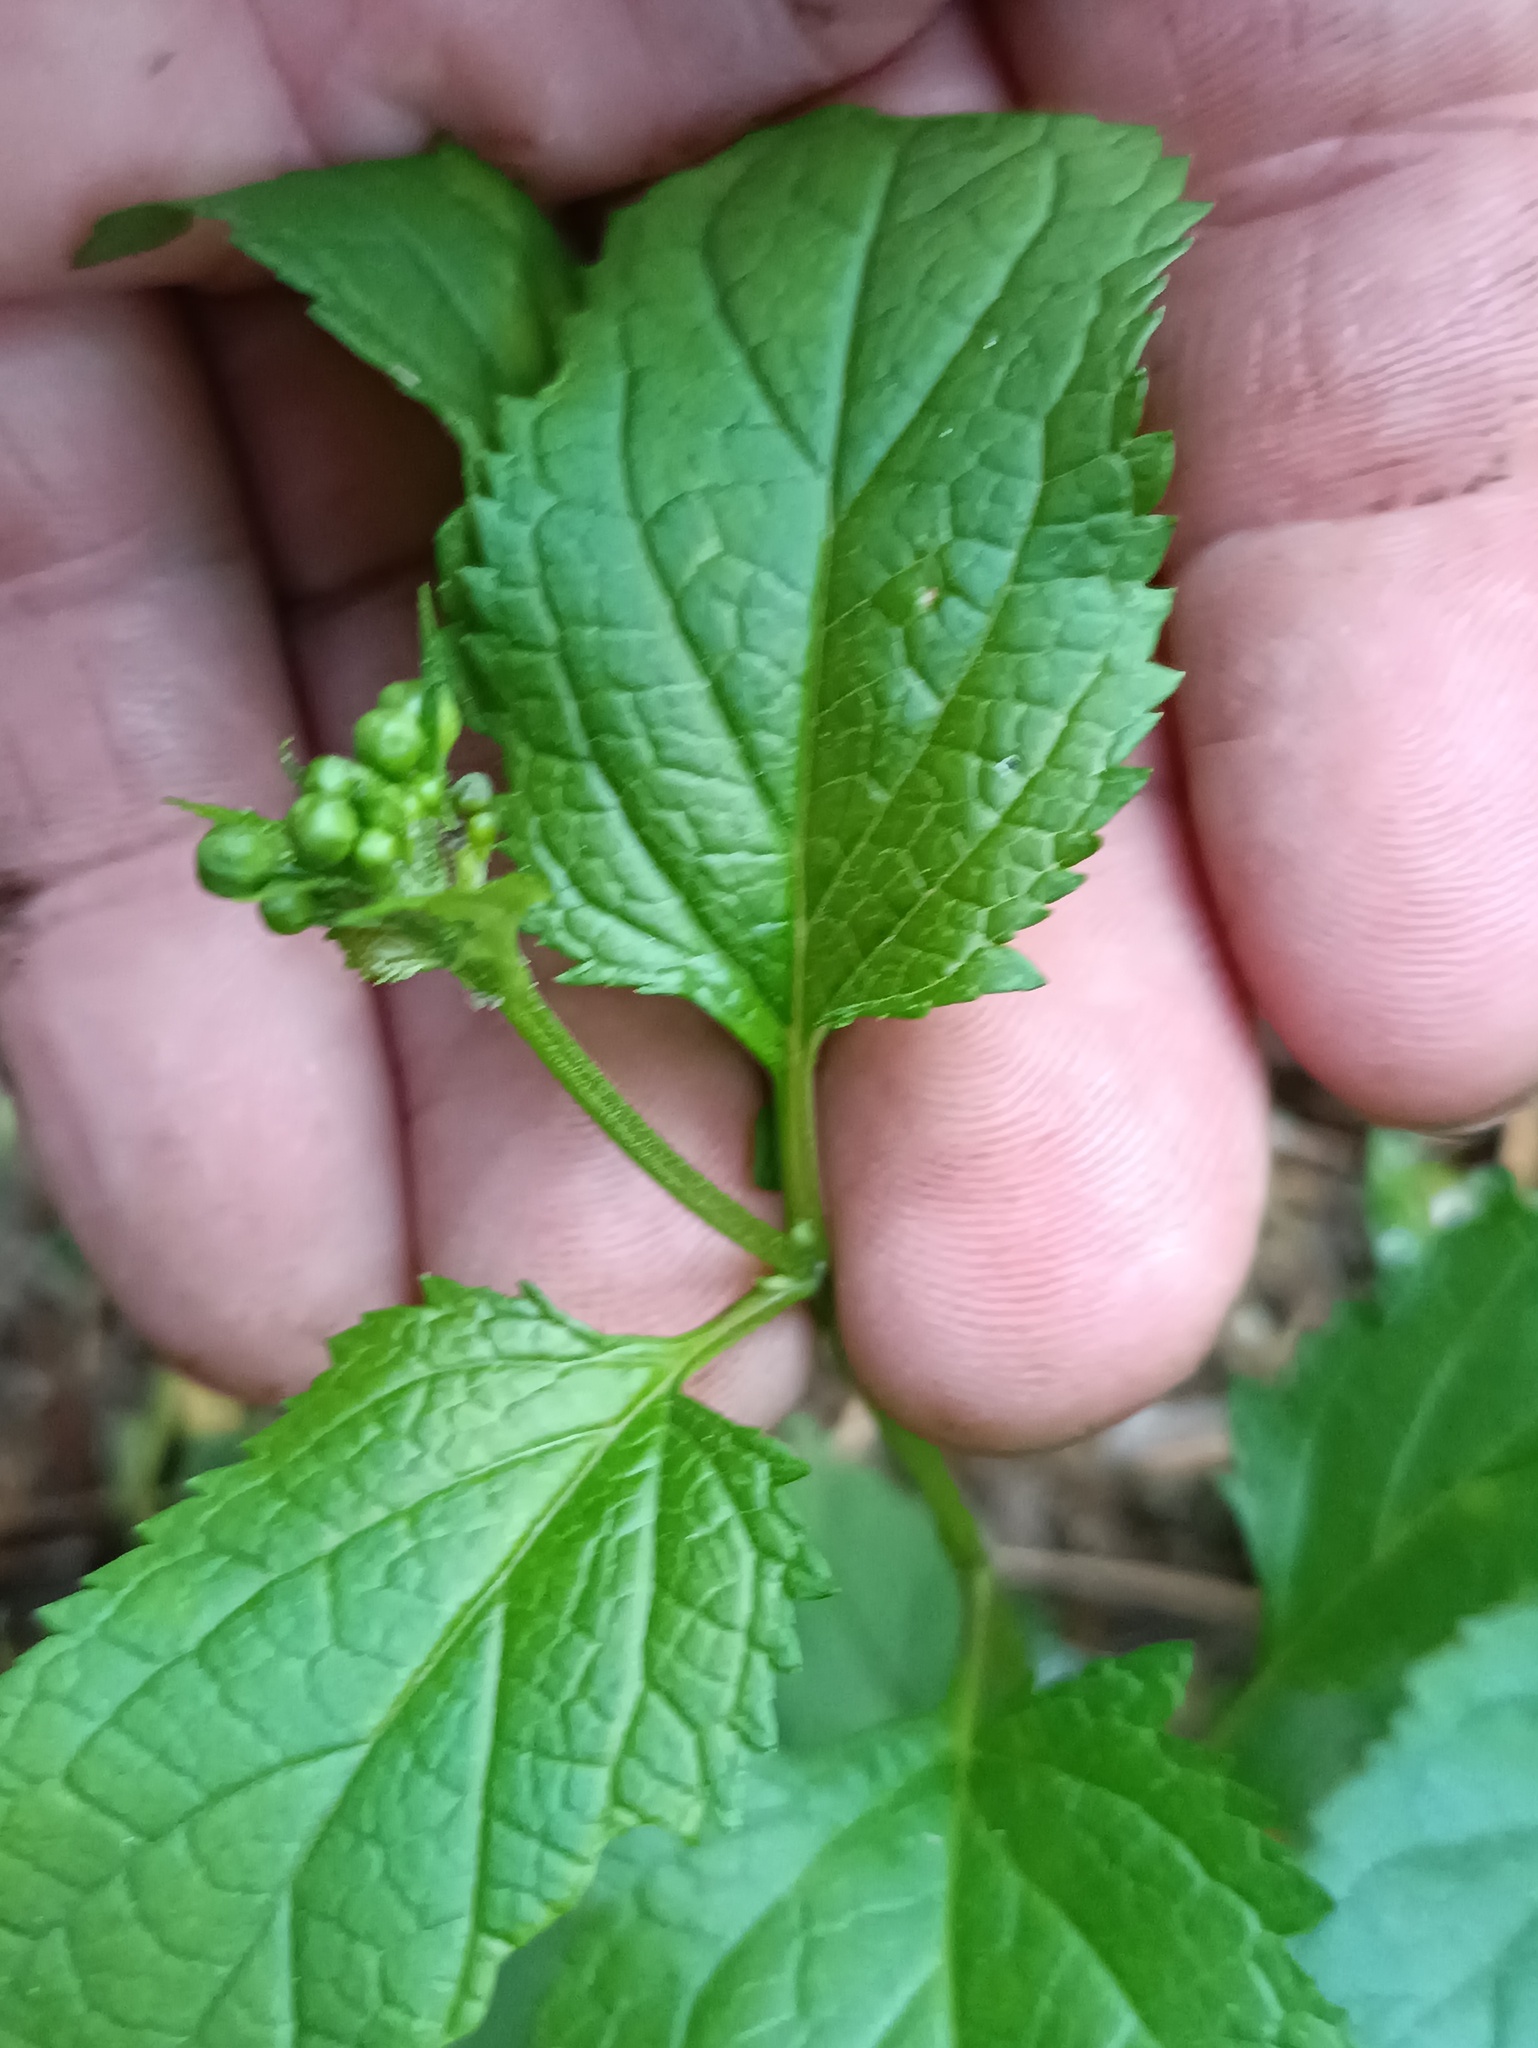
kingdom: Plantae
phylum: Tracheophyta
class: Magnoliopsida
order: Lamiales
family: Scrophulariaceae
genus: Scrophularia
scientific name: Scrophularia nodosa
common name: Common figwort
